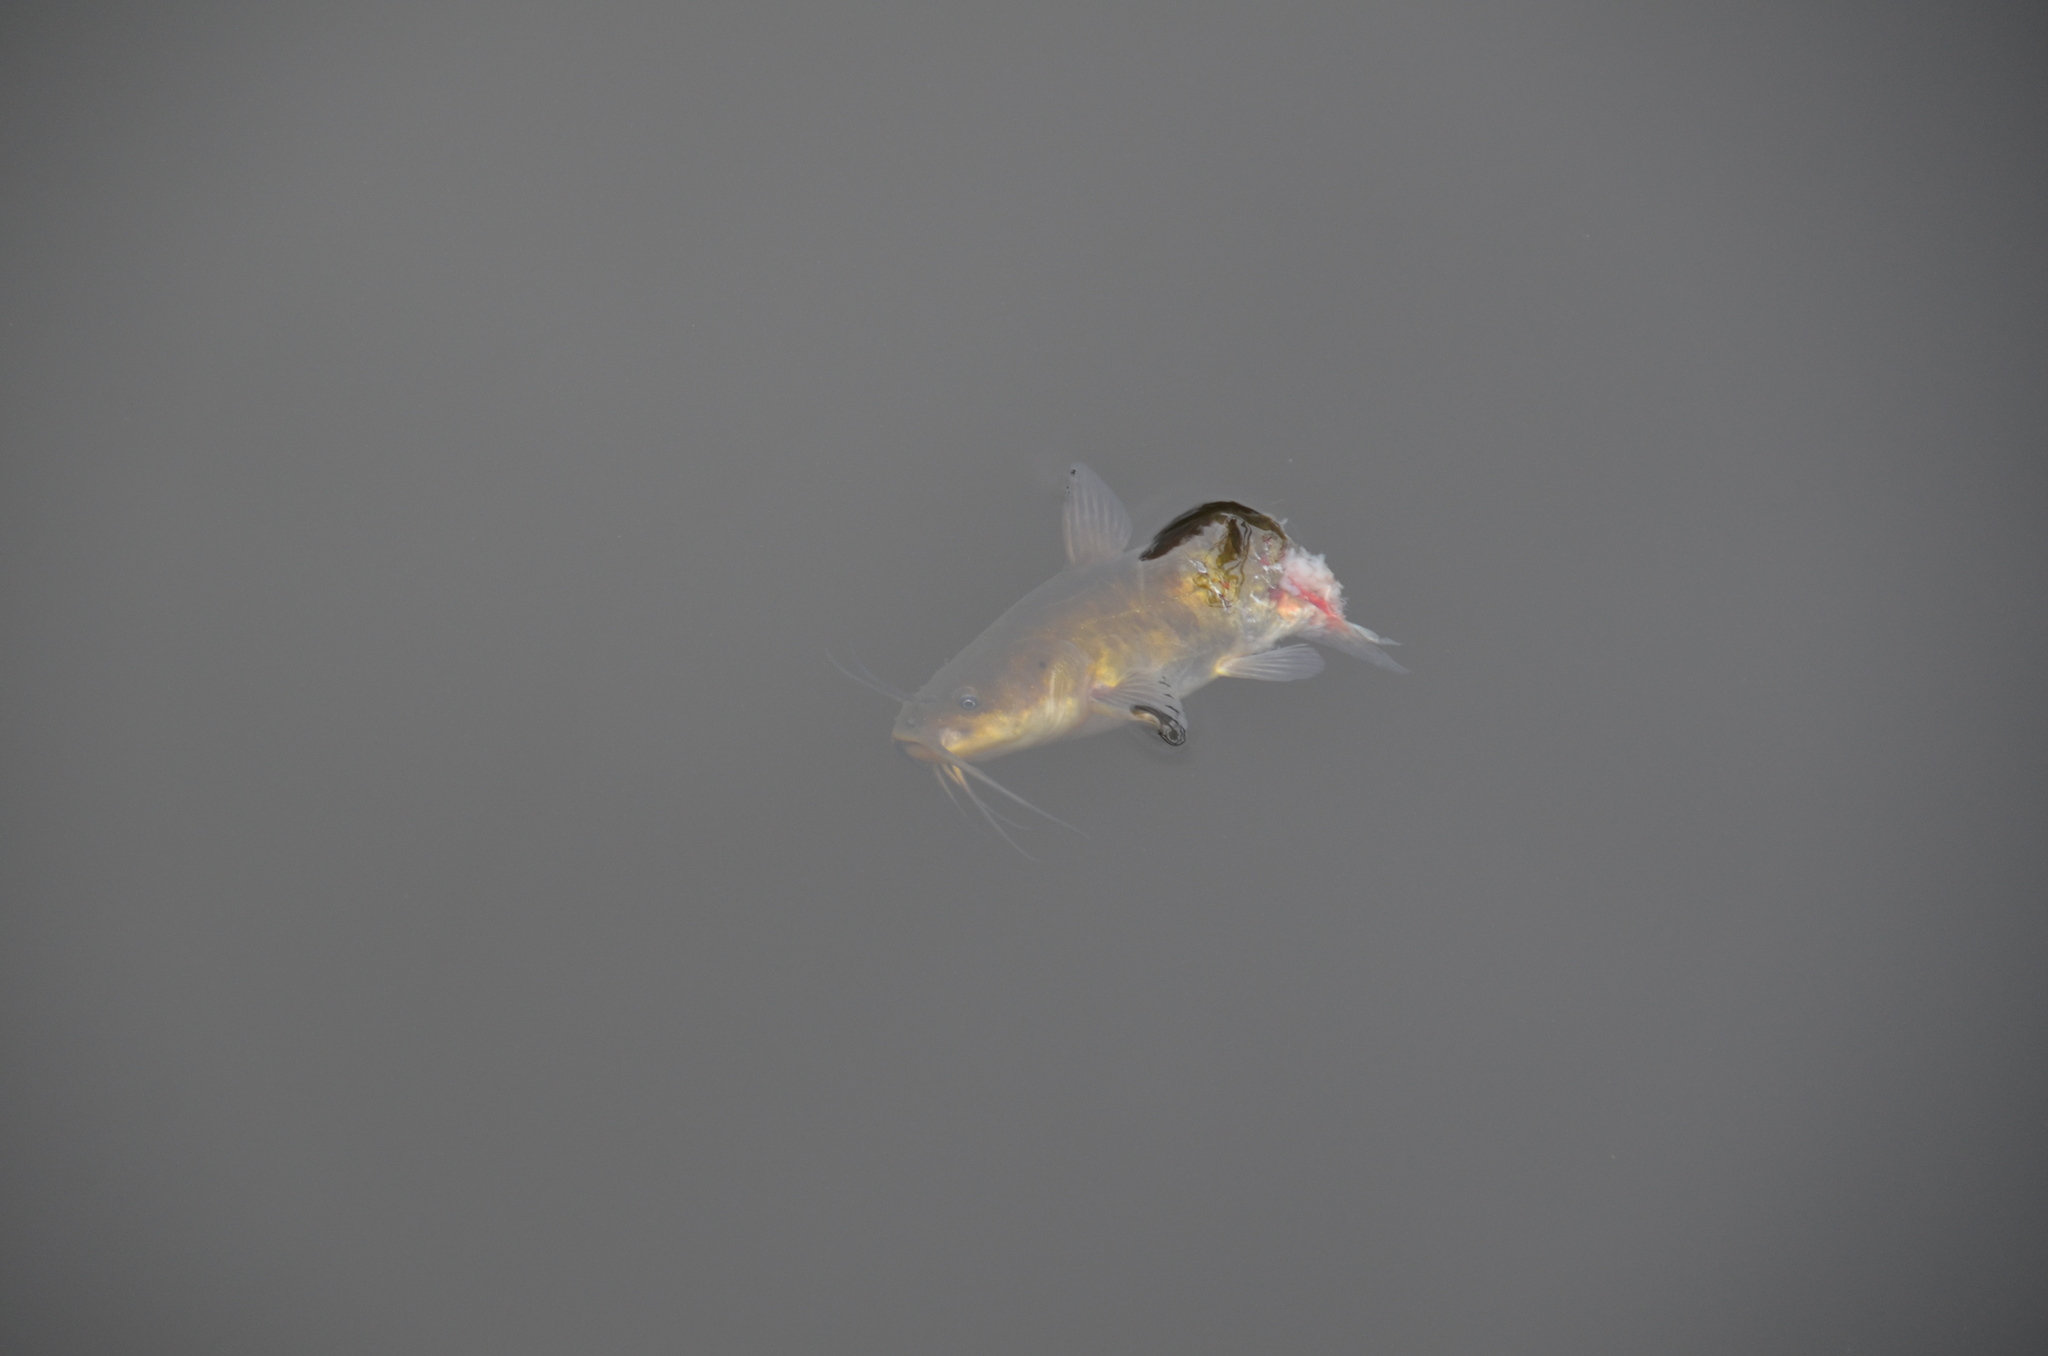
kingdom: Animalia
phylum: Chordata
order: Siluriformes
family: Ictaluridae
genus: Ameiurus
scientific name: Ameiurus nebulosus
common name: Brown bullhead
